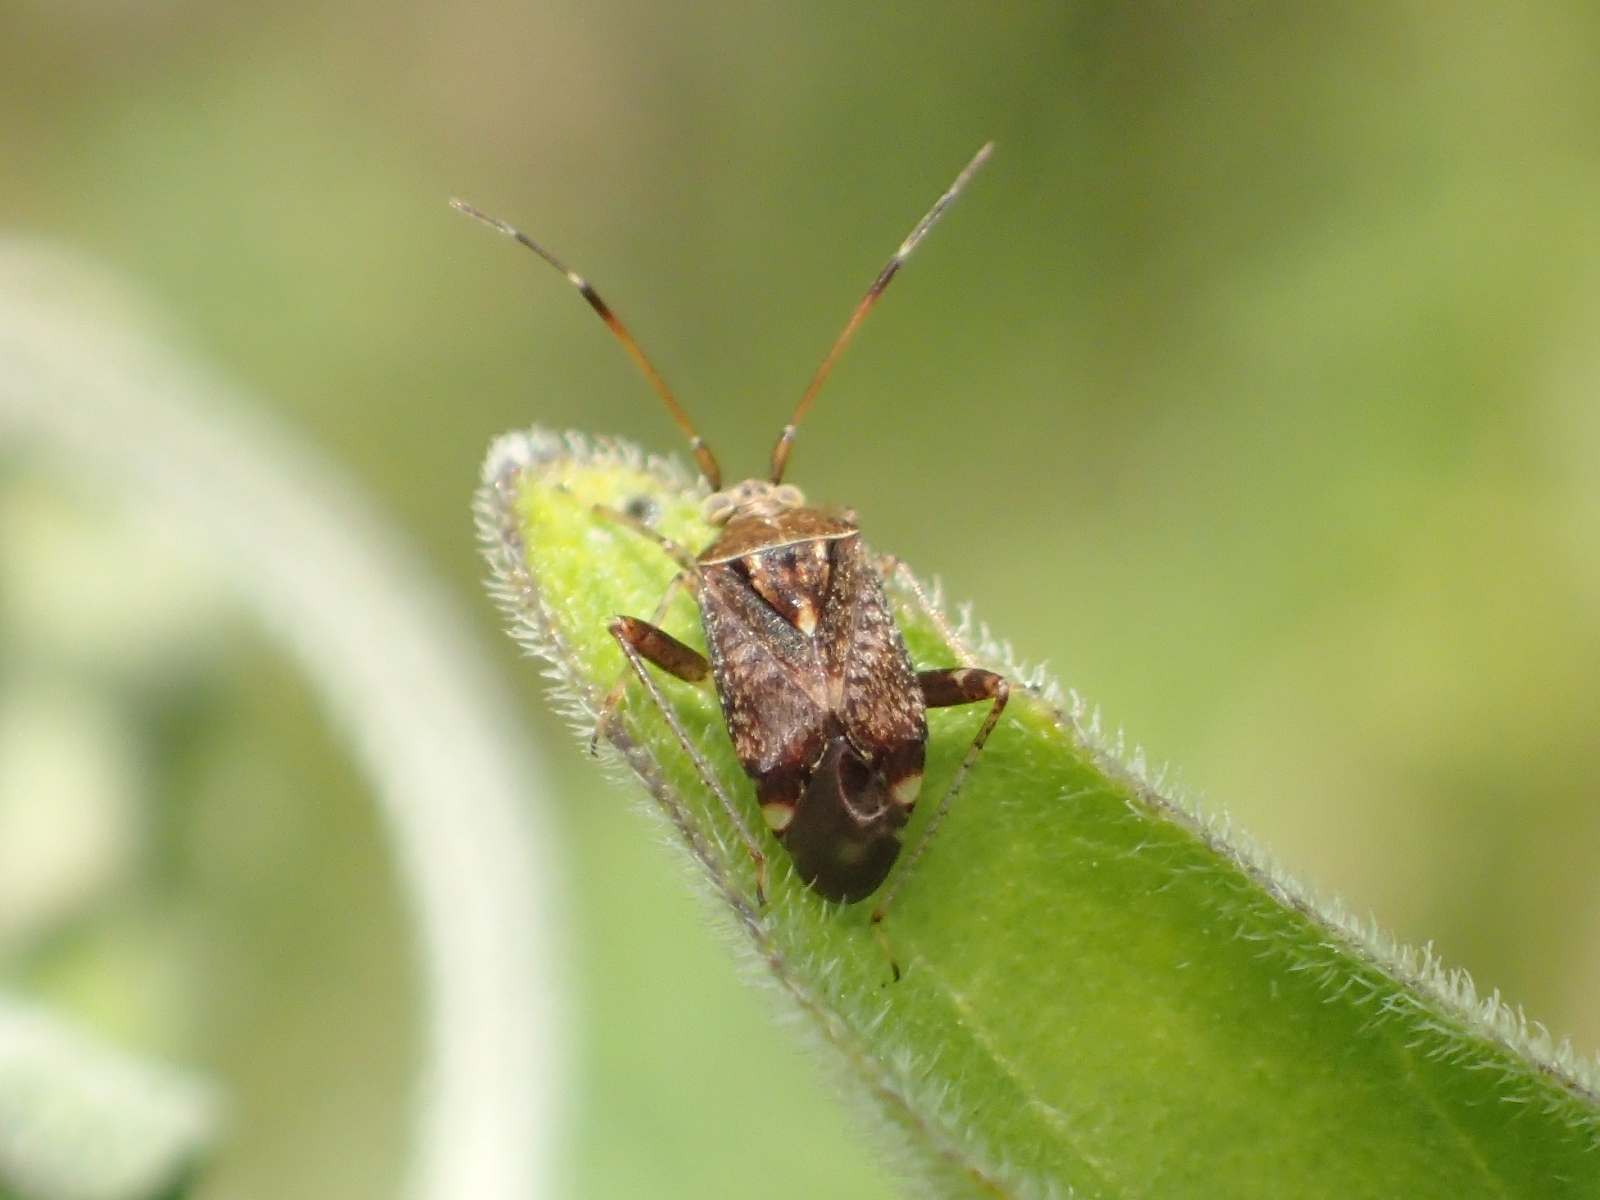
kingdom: Animalia
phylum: Arthropoda
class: Insecta
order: Hemiptera
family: Miridae
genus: Sidnia
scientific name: Sidnia kinbergi
